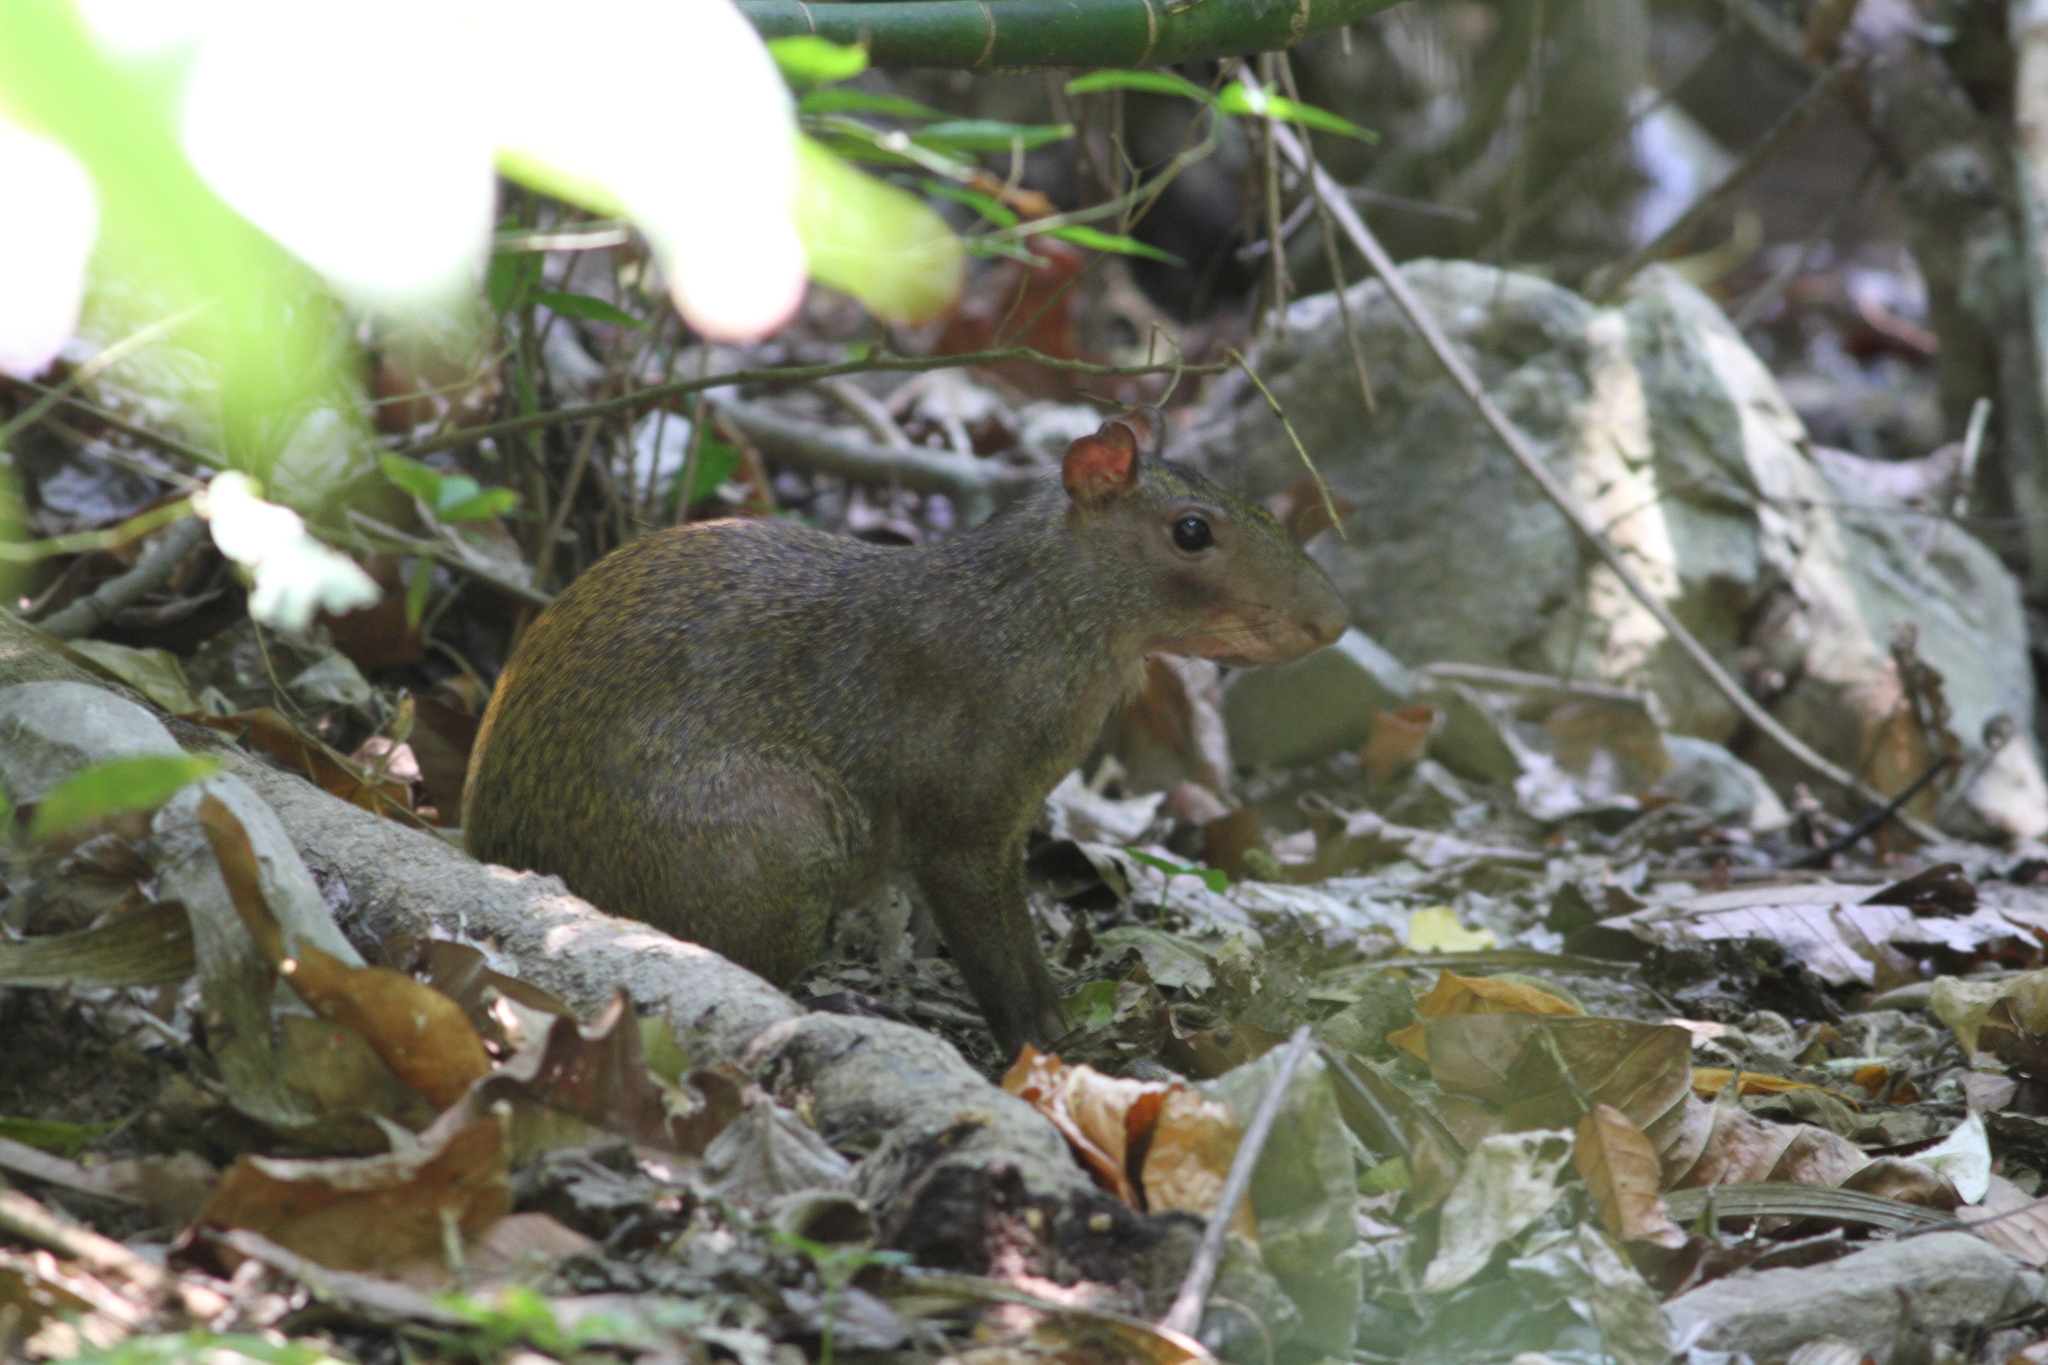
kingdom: Animalia
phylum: Chordata
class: Mammalia
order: Rodentia
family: Dasyproctidae
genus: Dasyprocta
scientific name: Dasyprocta punctata
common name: Central american agouti
